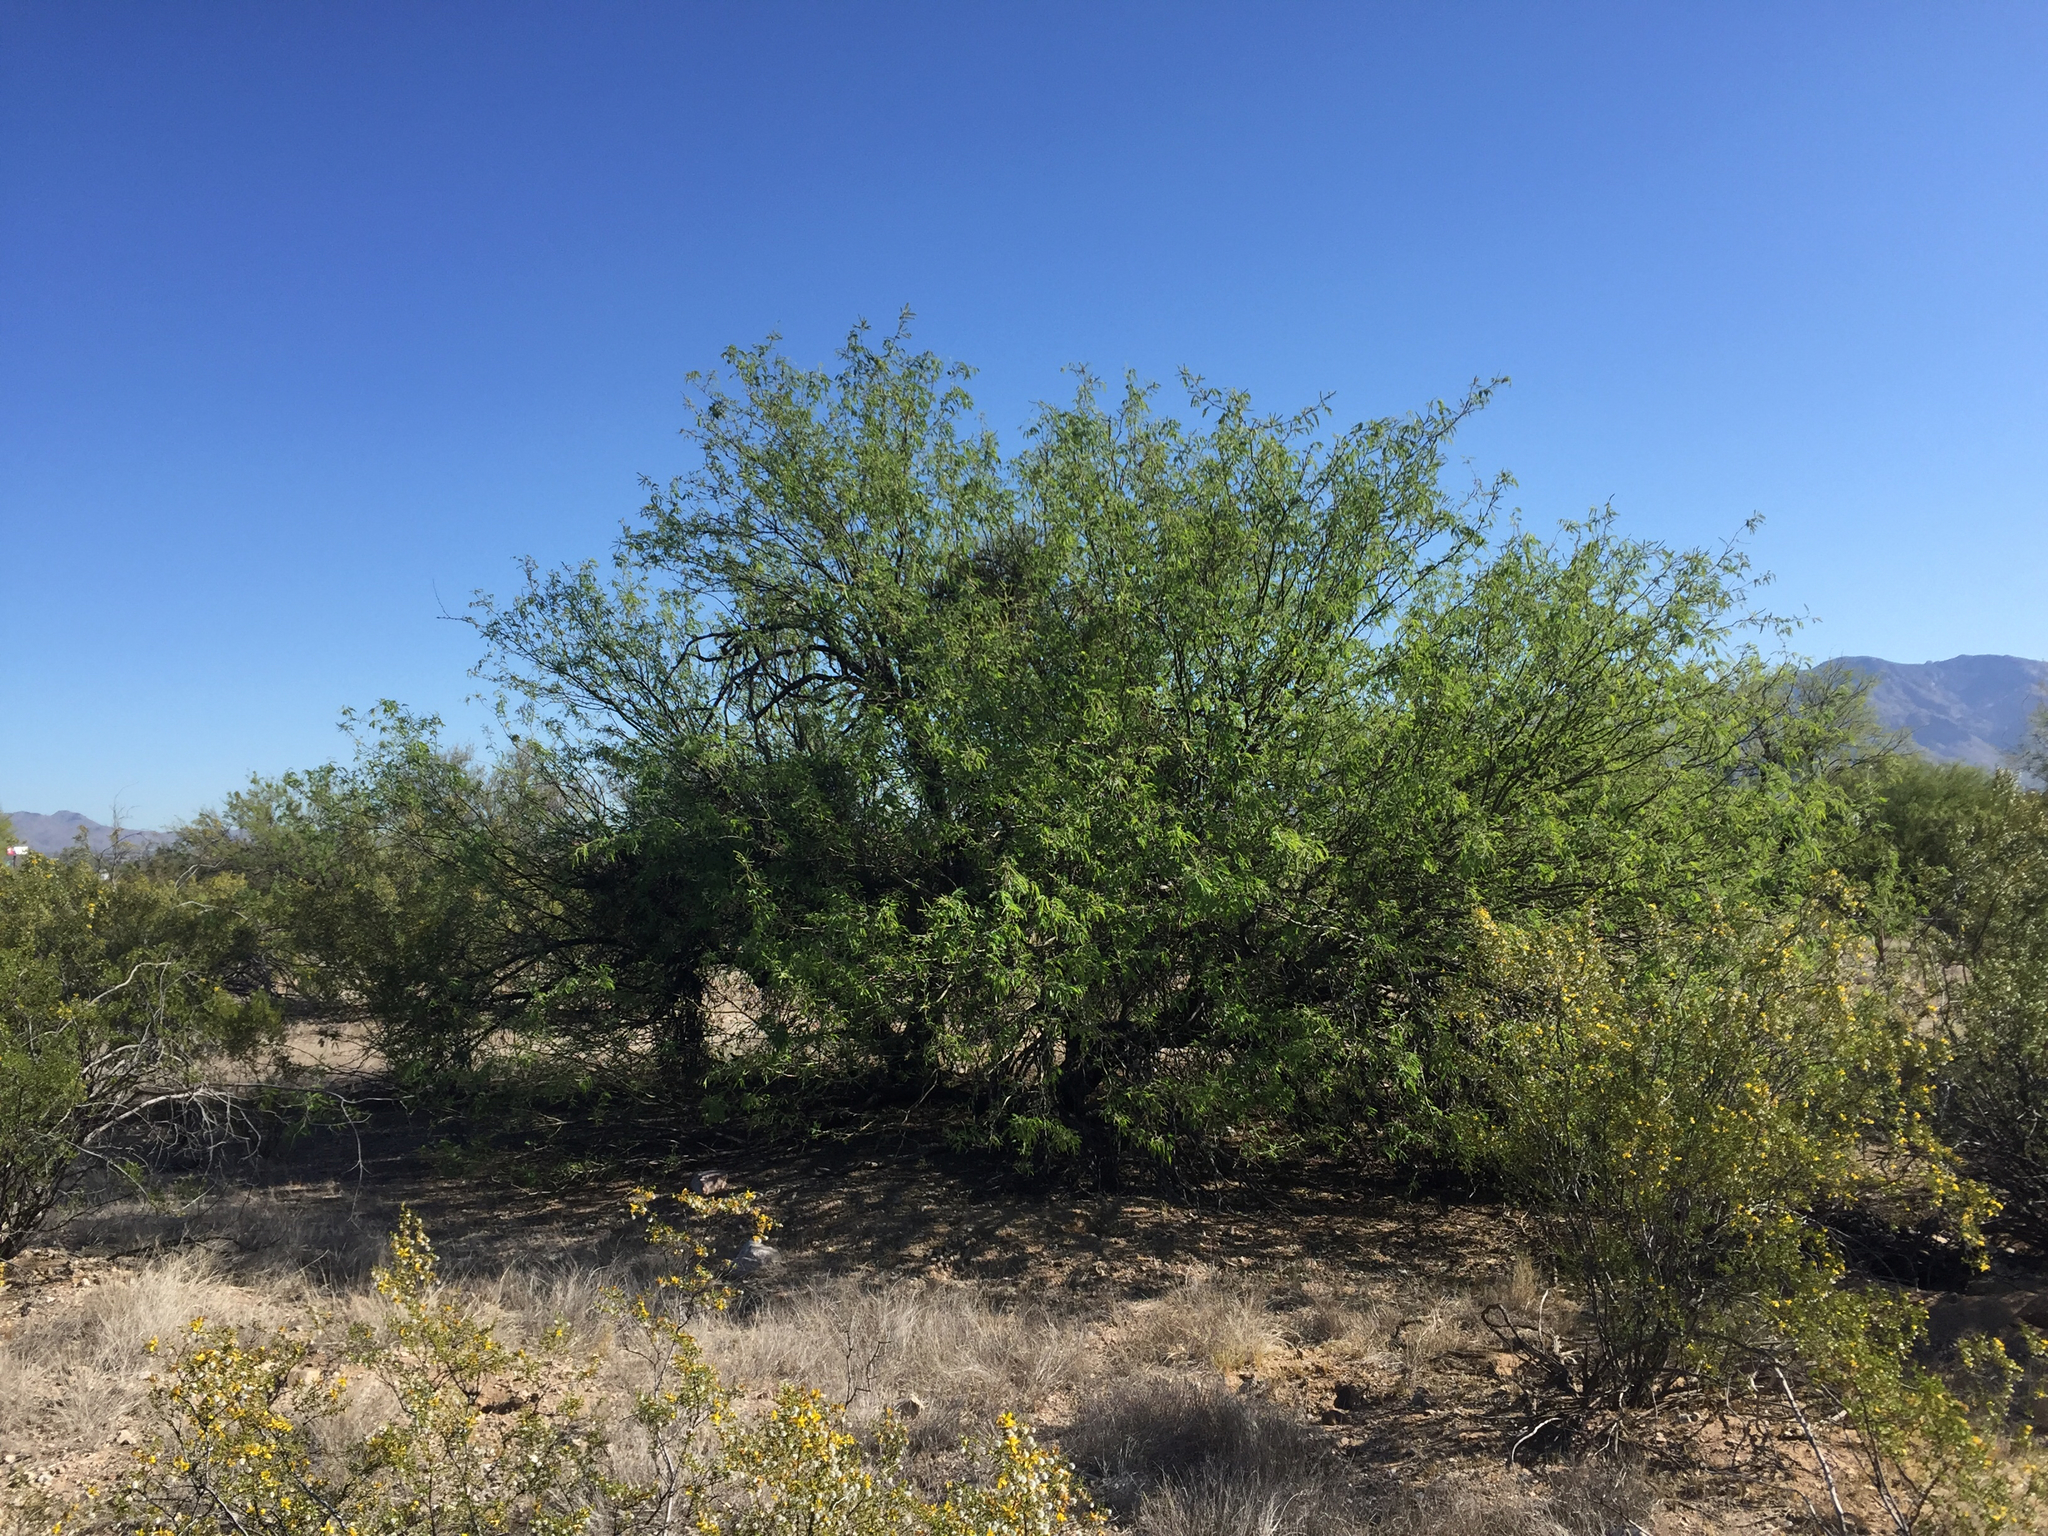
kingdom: Plantae
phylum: Tracheophyta
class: Magnoliopsida
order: Fabales
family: Fabaceae
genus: Prosopis
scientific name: Prosopis velutina
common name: Velvet mesquite
